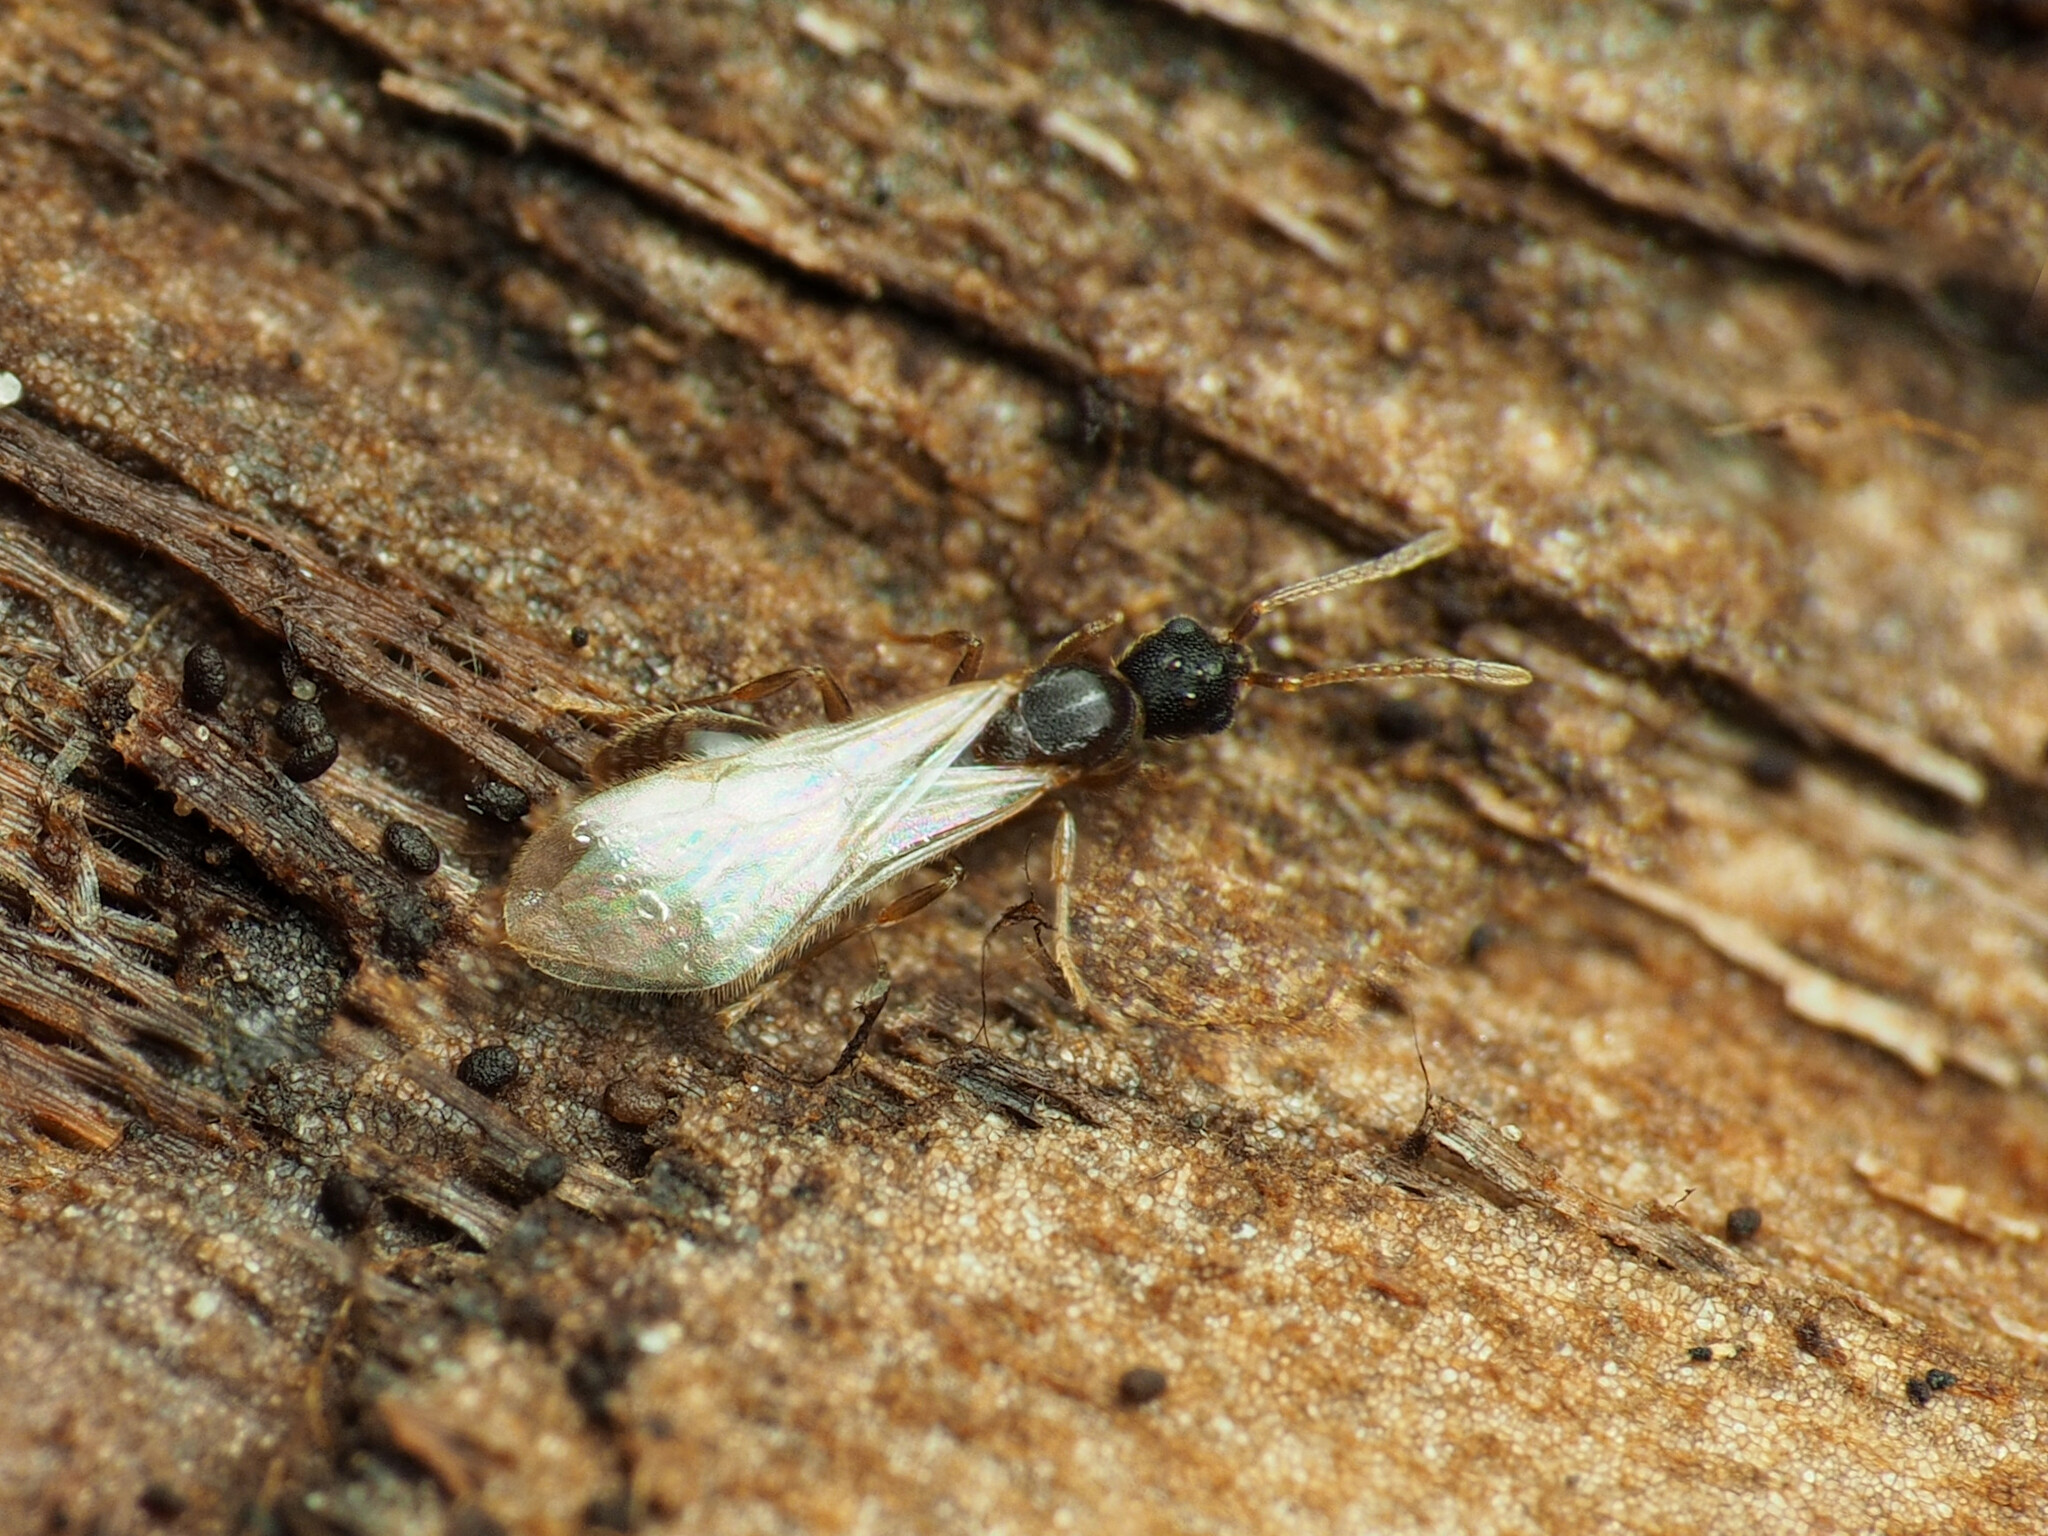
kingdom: Animalia
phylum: Arthropoda
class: Insecta
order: Hymenoptera
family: Formicidae
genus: Vollenhovia
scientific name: Vollenhovia emeryi
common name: Ant
